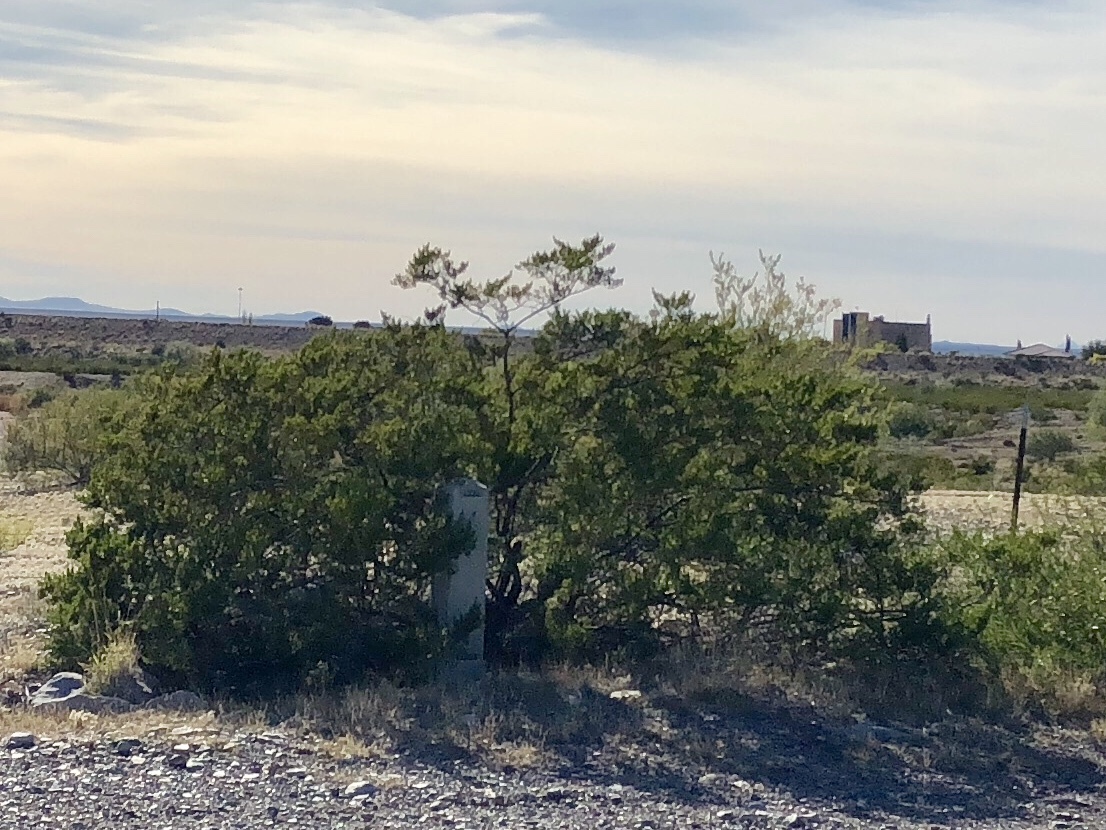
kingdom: Plantae
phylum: Tracheophyta
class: Magnoliopsida
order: Zygophyllales
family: Zygophyllaceae
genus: Larrea
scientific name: Larrea tridentata
